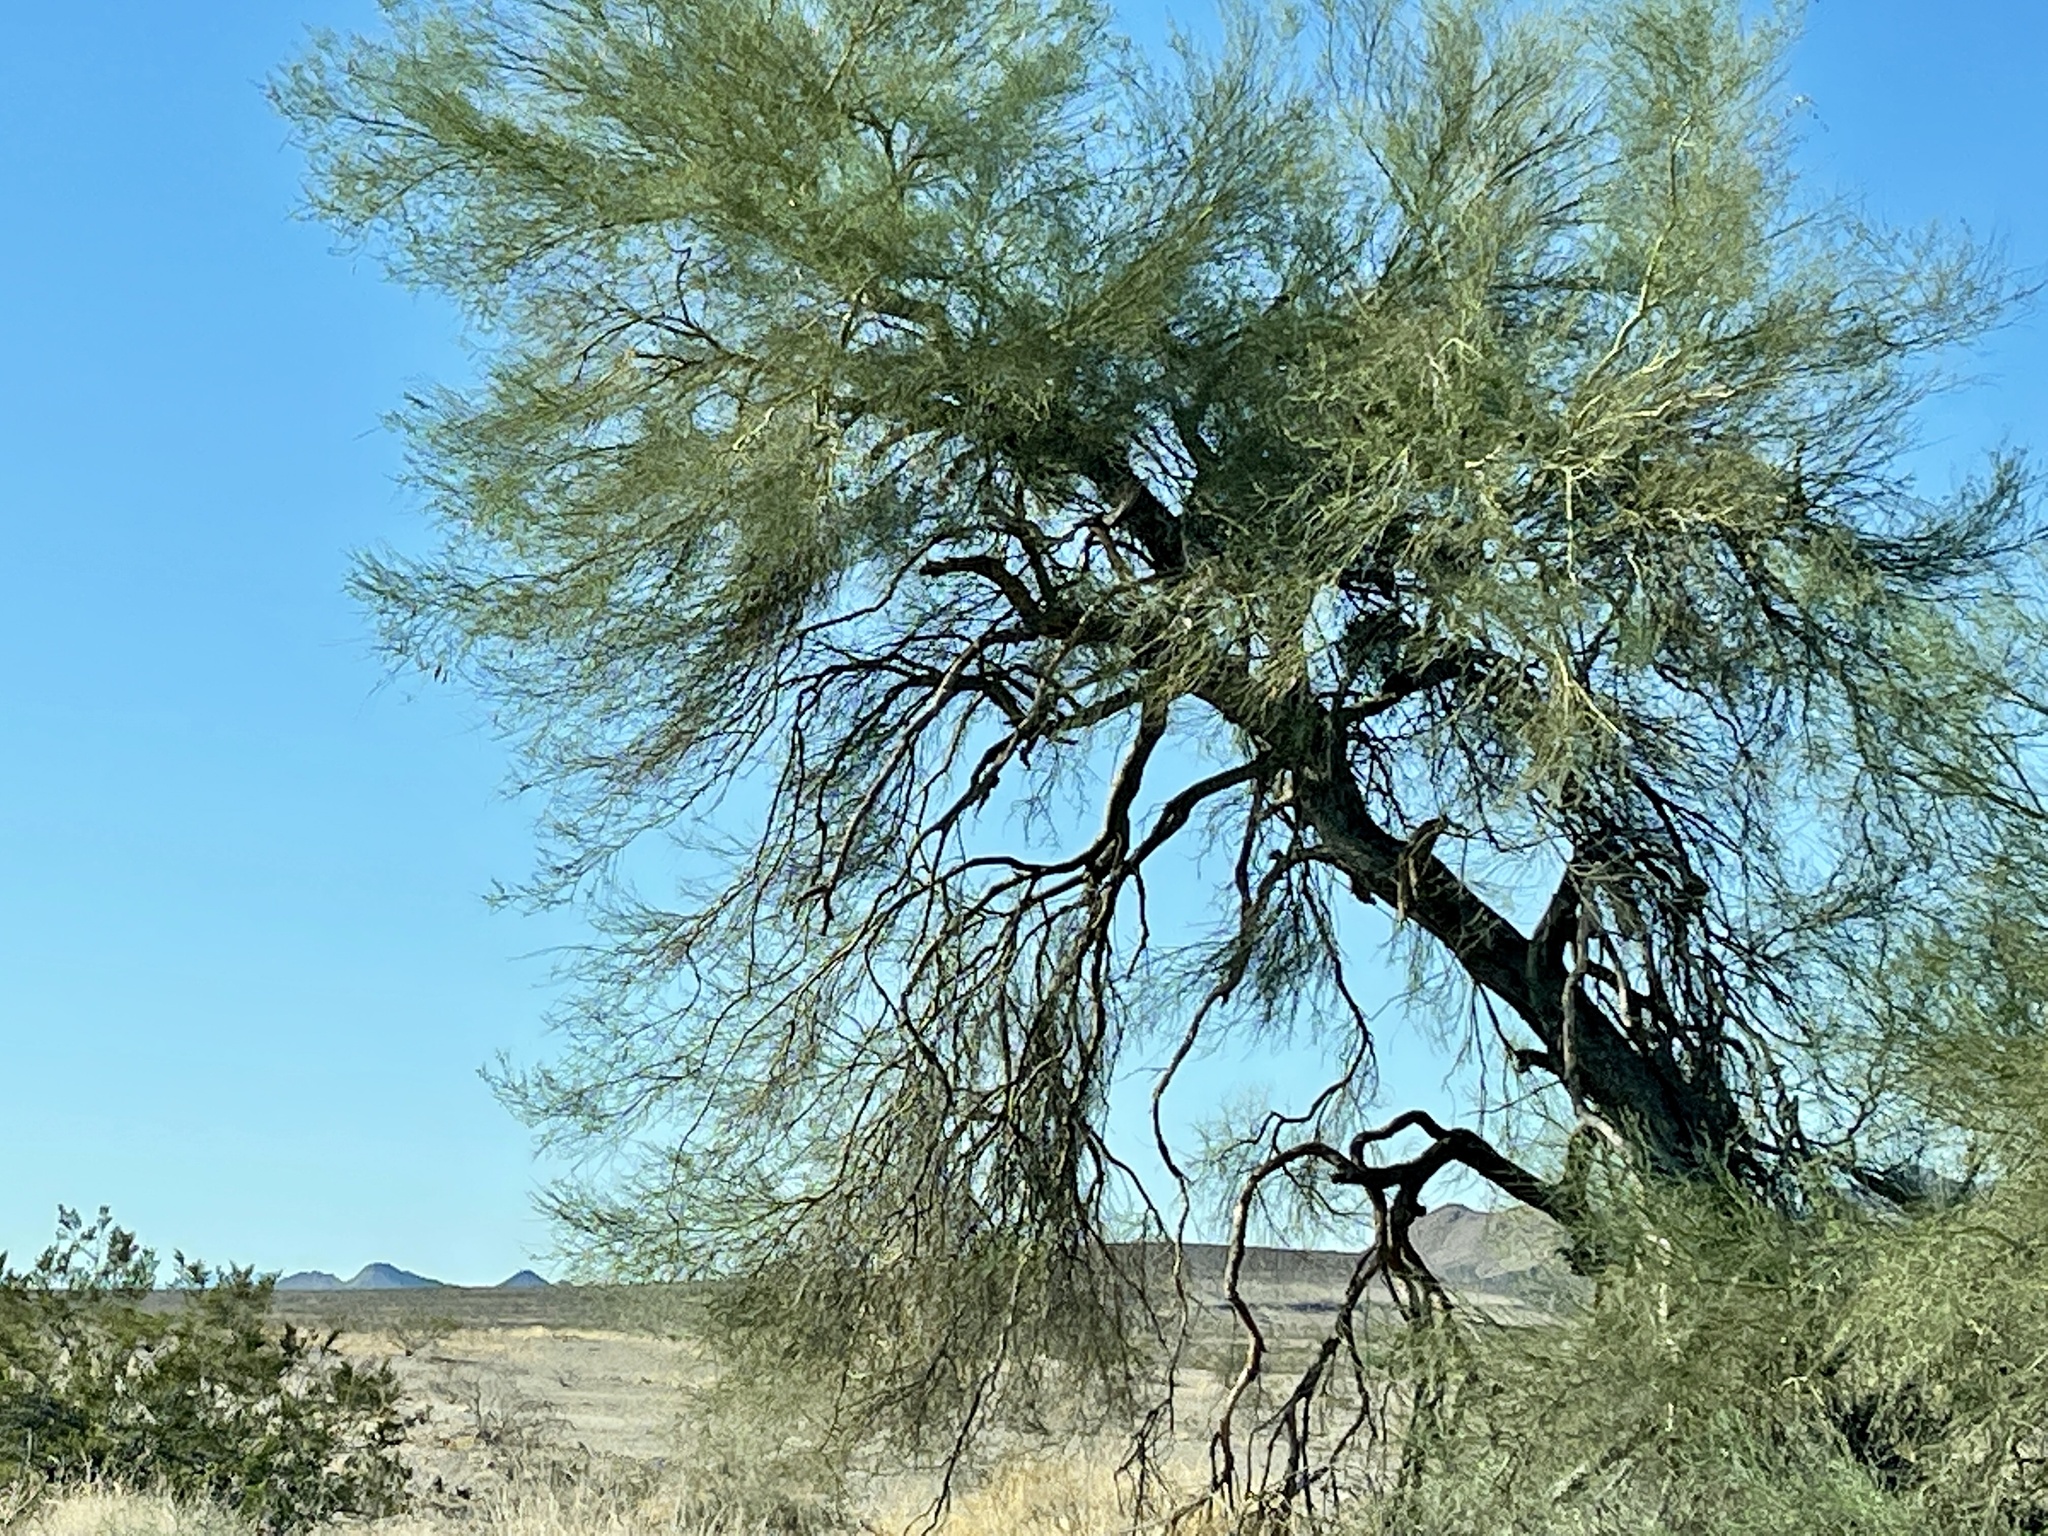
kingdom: Plantae
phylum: Tracheophyta
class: Magnoliopsida
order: Fabales
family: Fabaceae
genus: Parkinsonia
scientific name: Parkinsonia florida
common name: Blue paloverde
